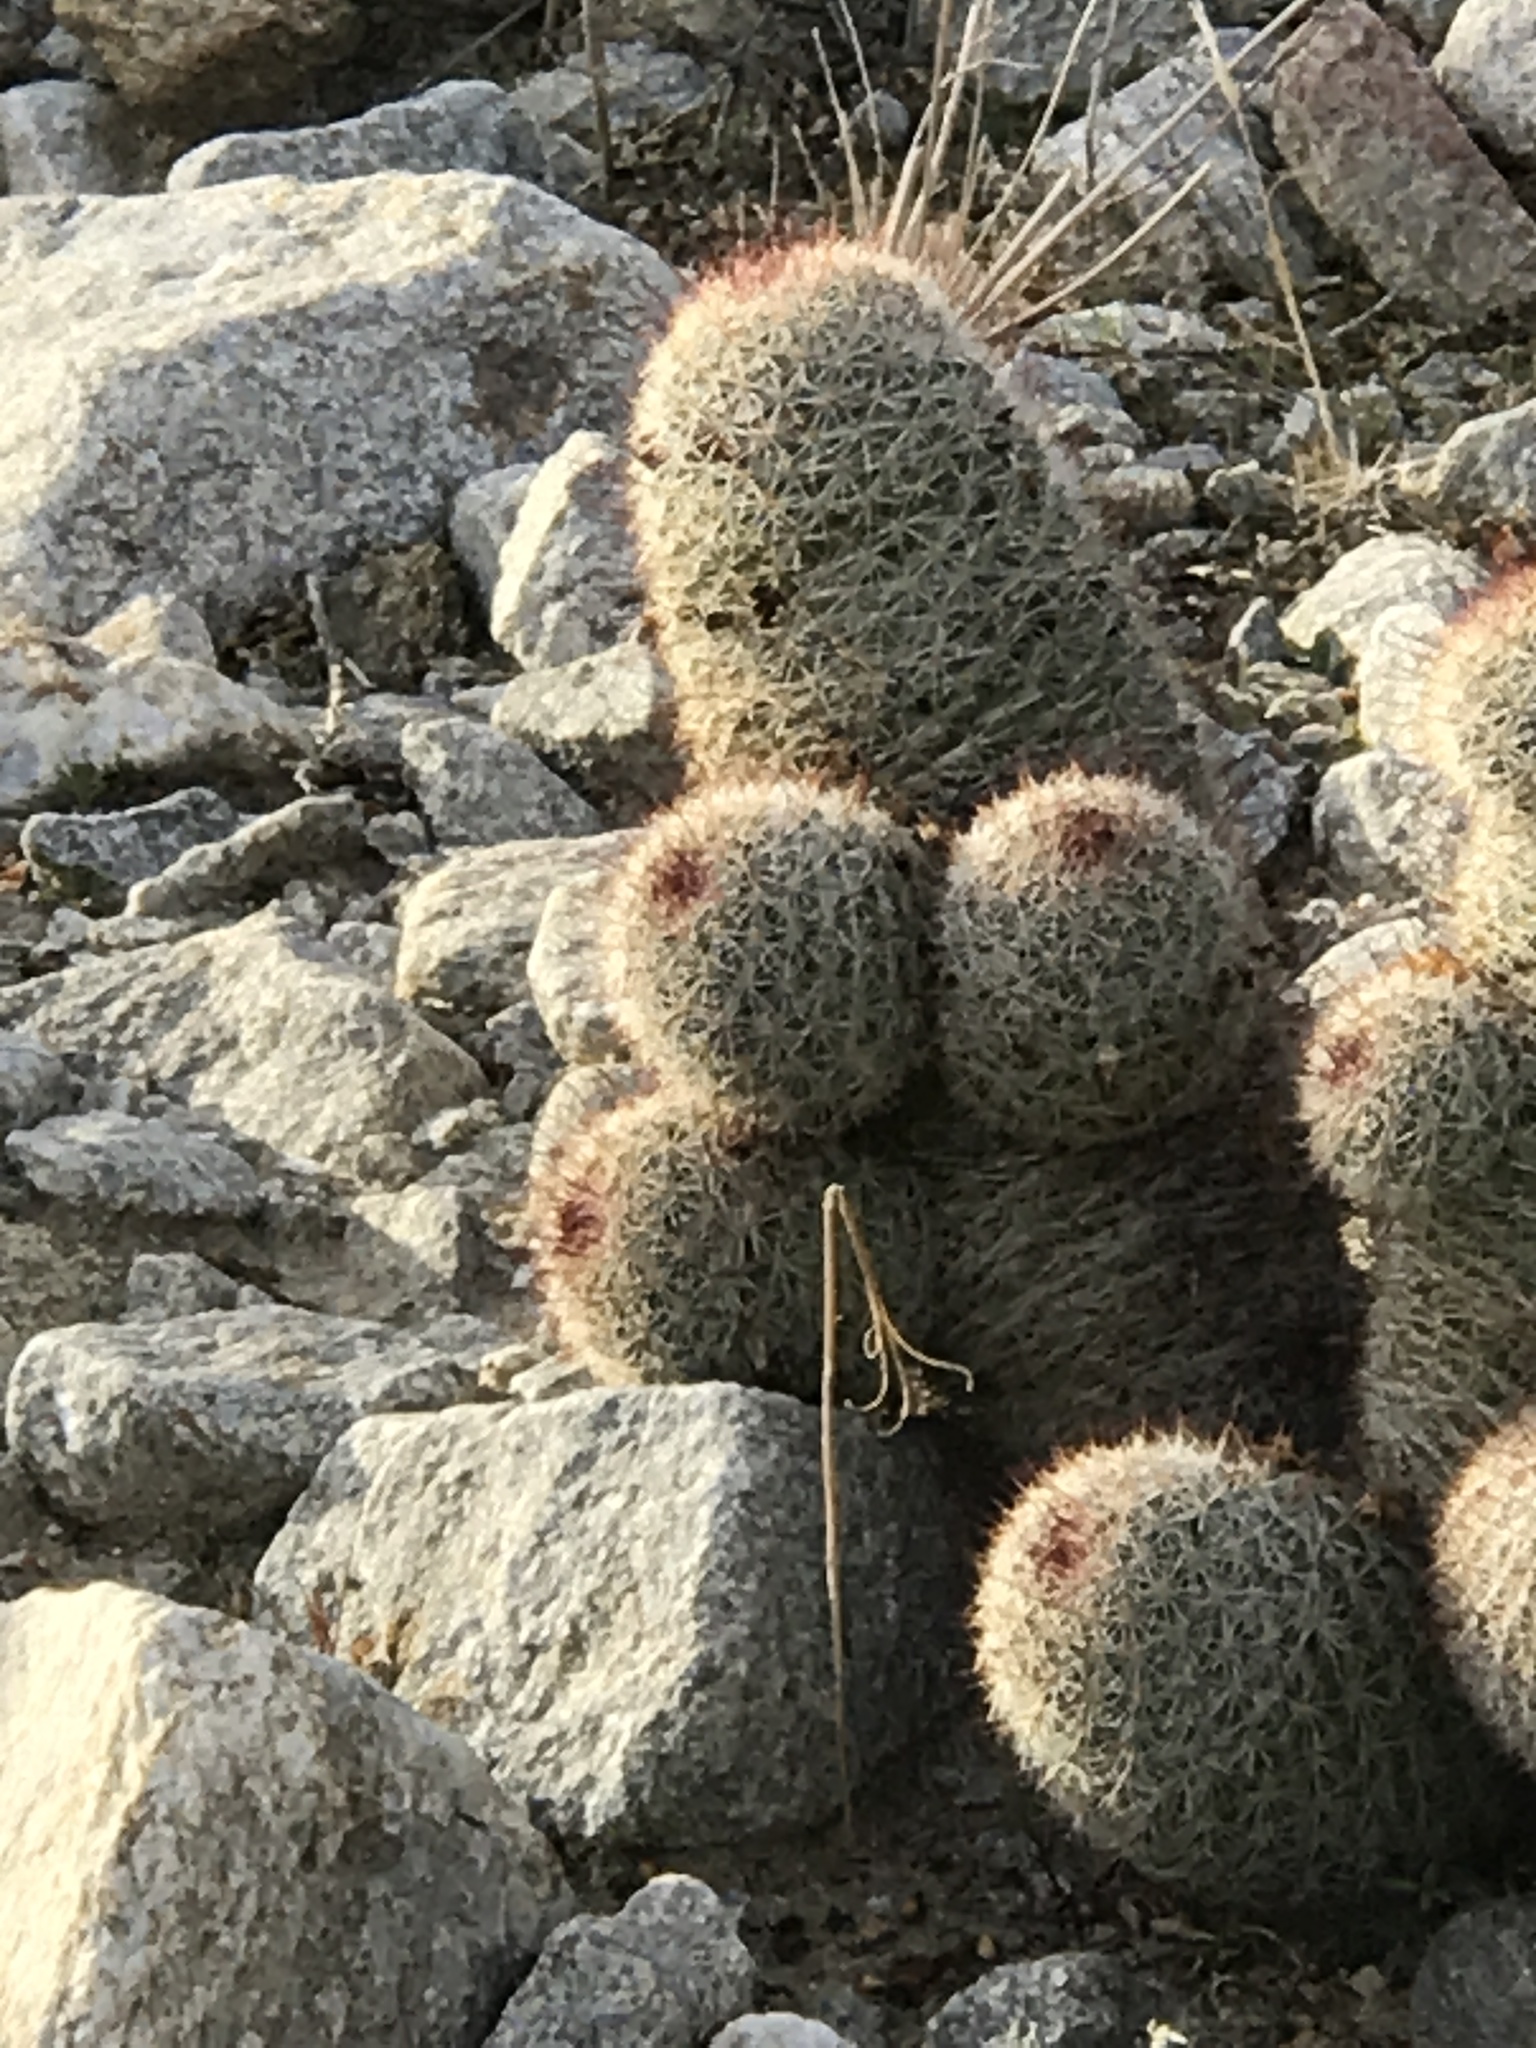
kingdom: Plantae
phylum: Tracheophyta
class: Magnoliopsida
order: Caryophyllales
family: Cactaceae
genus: Cochemiea
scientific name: Cochemiea dioica
